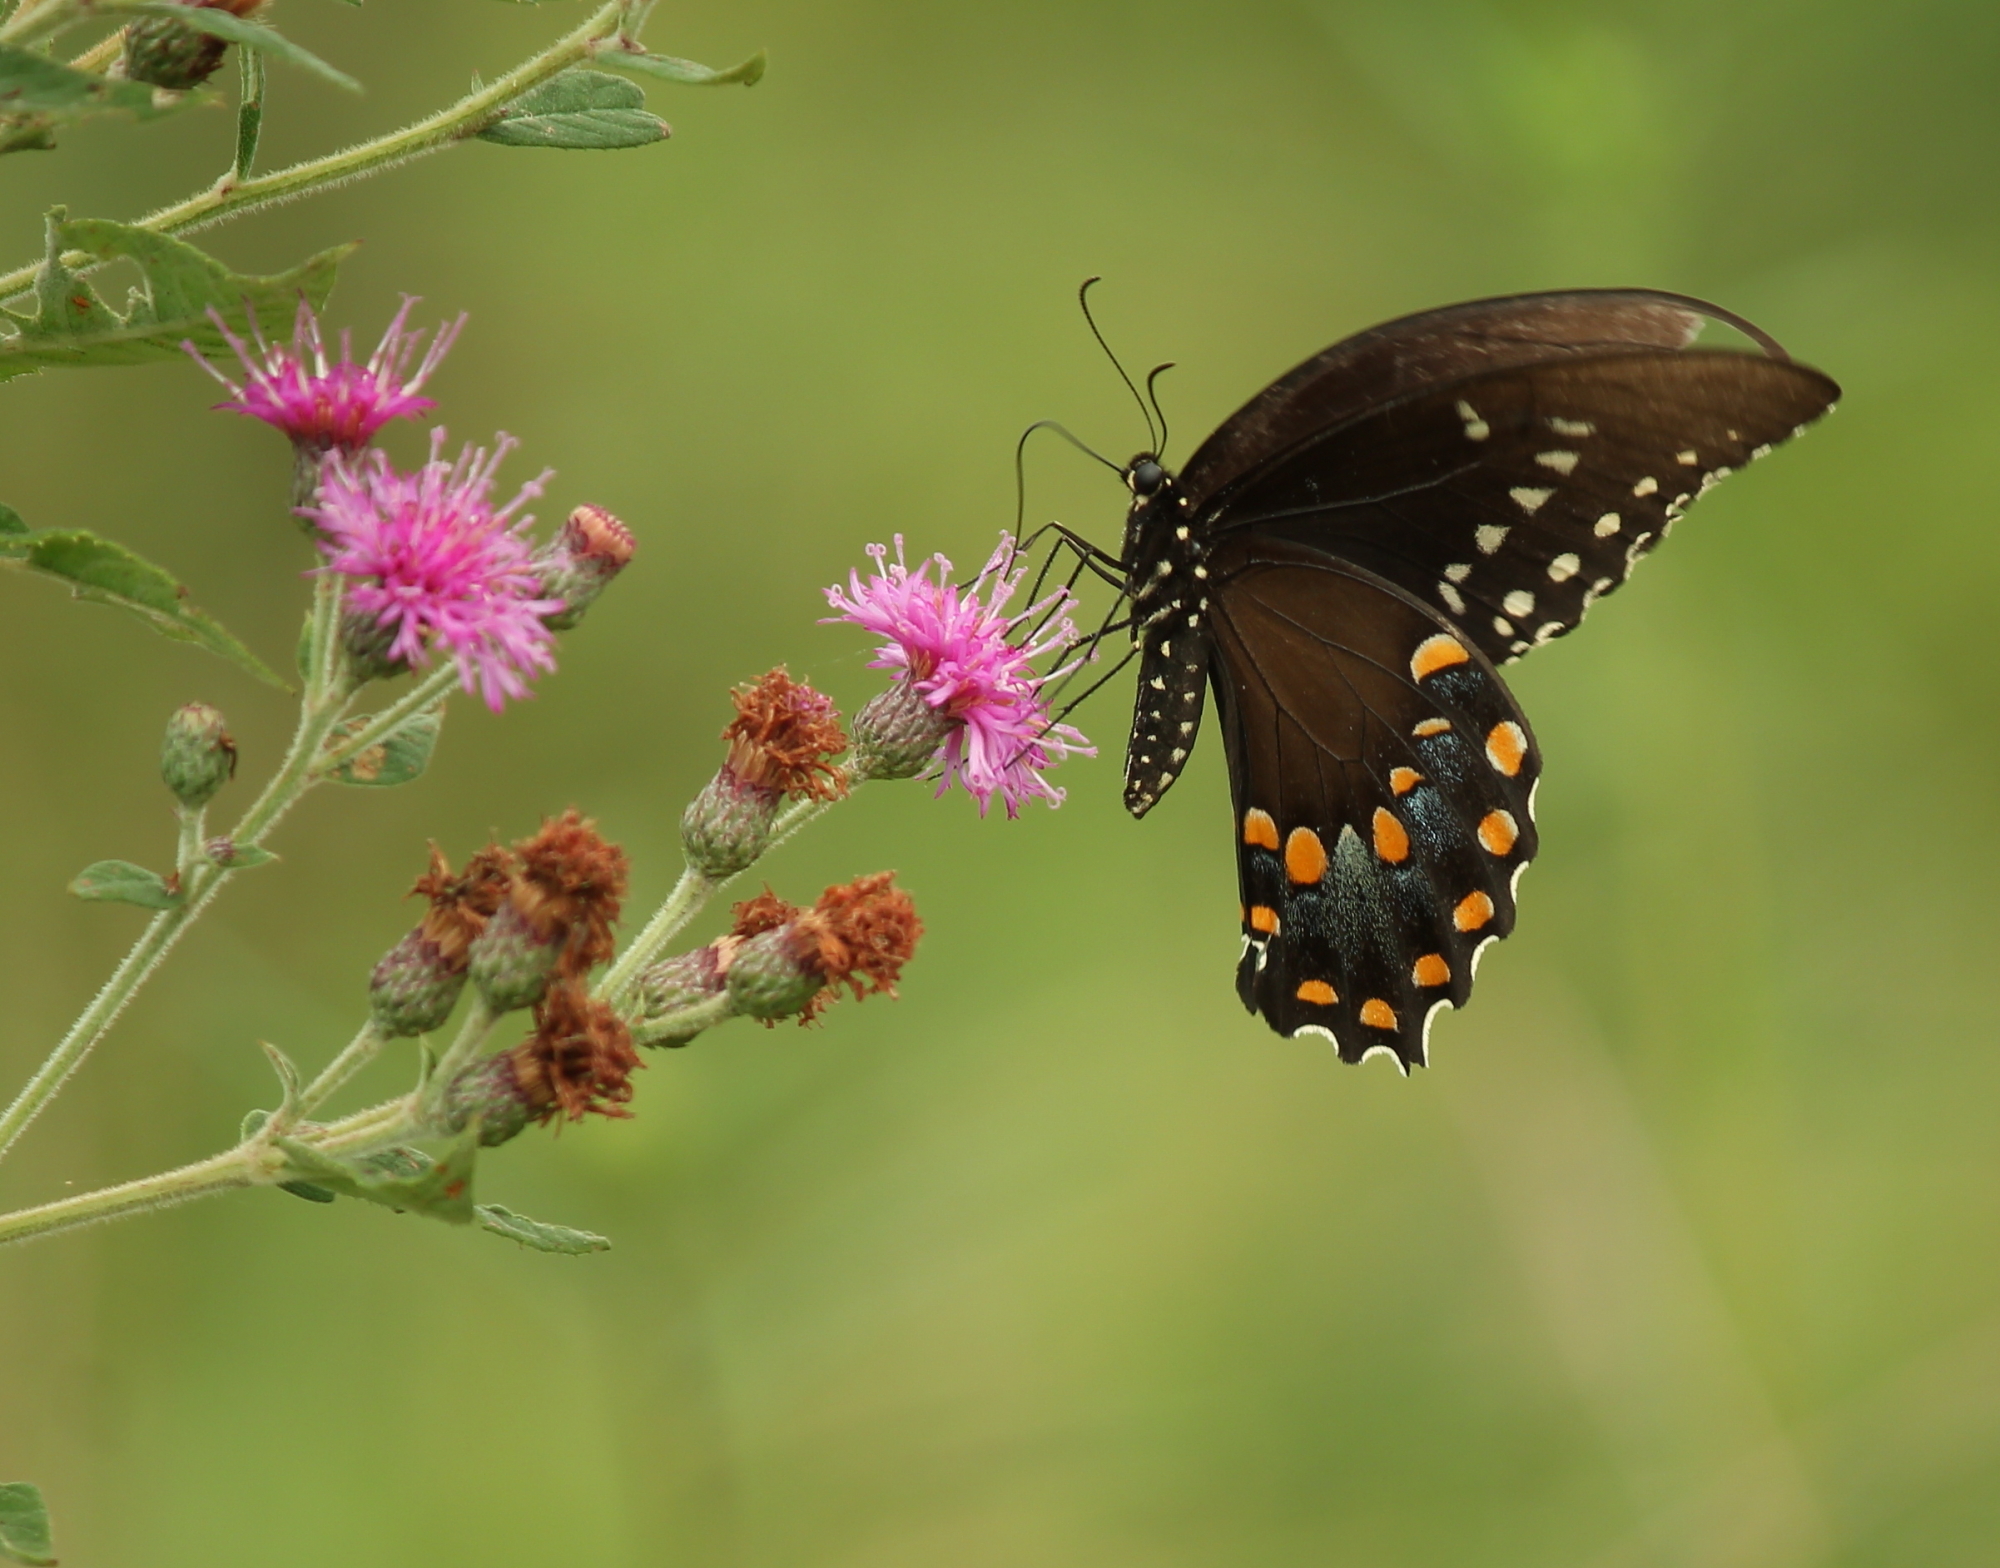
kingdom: Animalia
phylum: Arthropoda
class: Insecta
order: Lepidoptera
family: Papilionidae
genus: Papilio
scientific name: Papilio troilus
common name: Spicebush swallowtail
